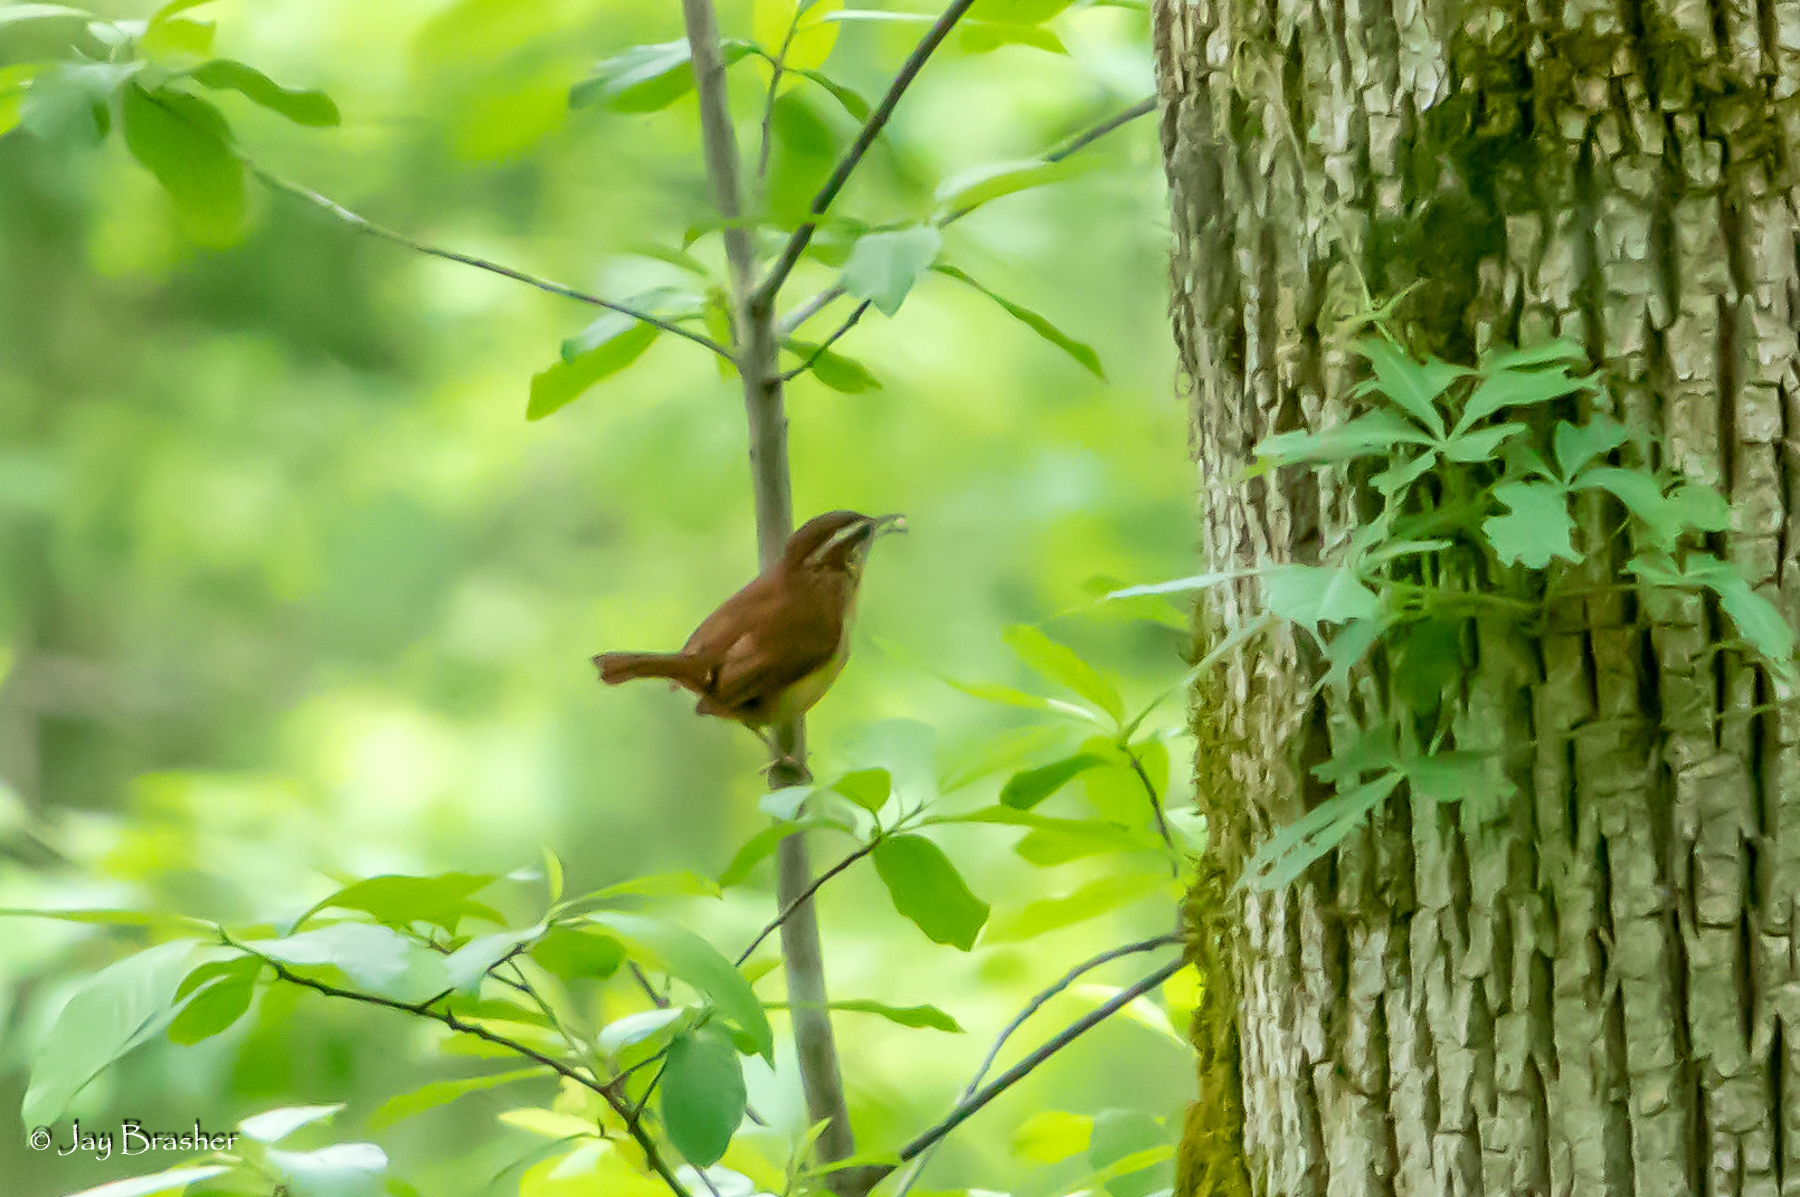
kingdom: Animalia
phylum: Chordata
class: Aves
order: Passeriformes
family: Troglodytidae
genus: Thryothorus
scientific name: Thryothorus ludovicianus
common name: Carolina wren
